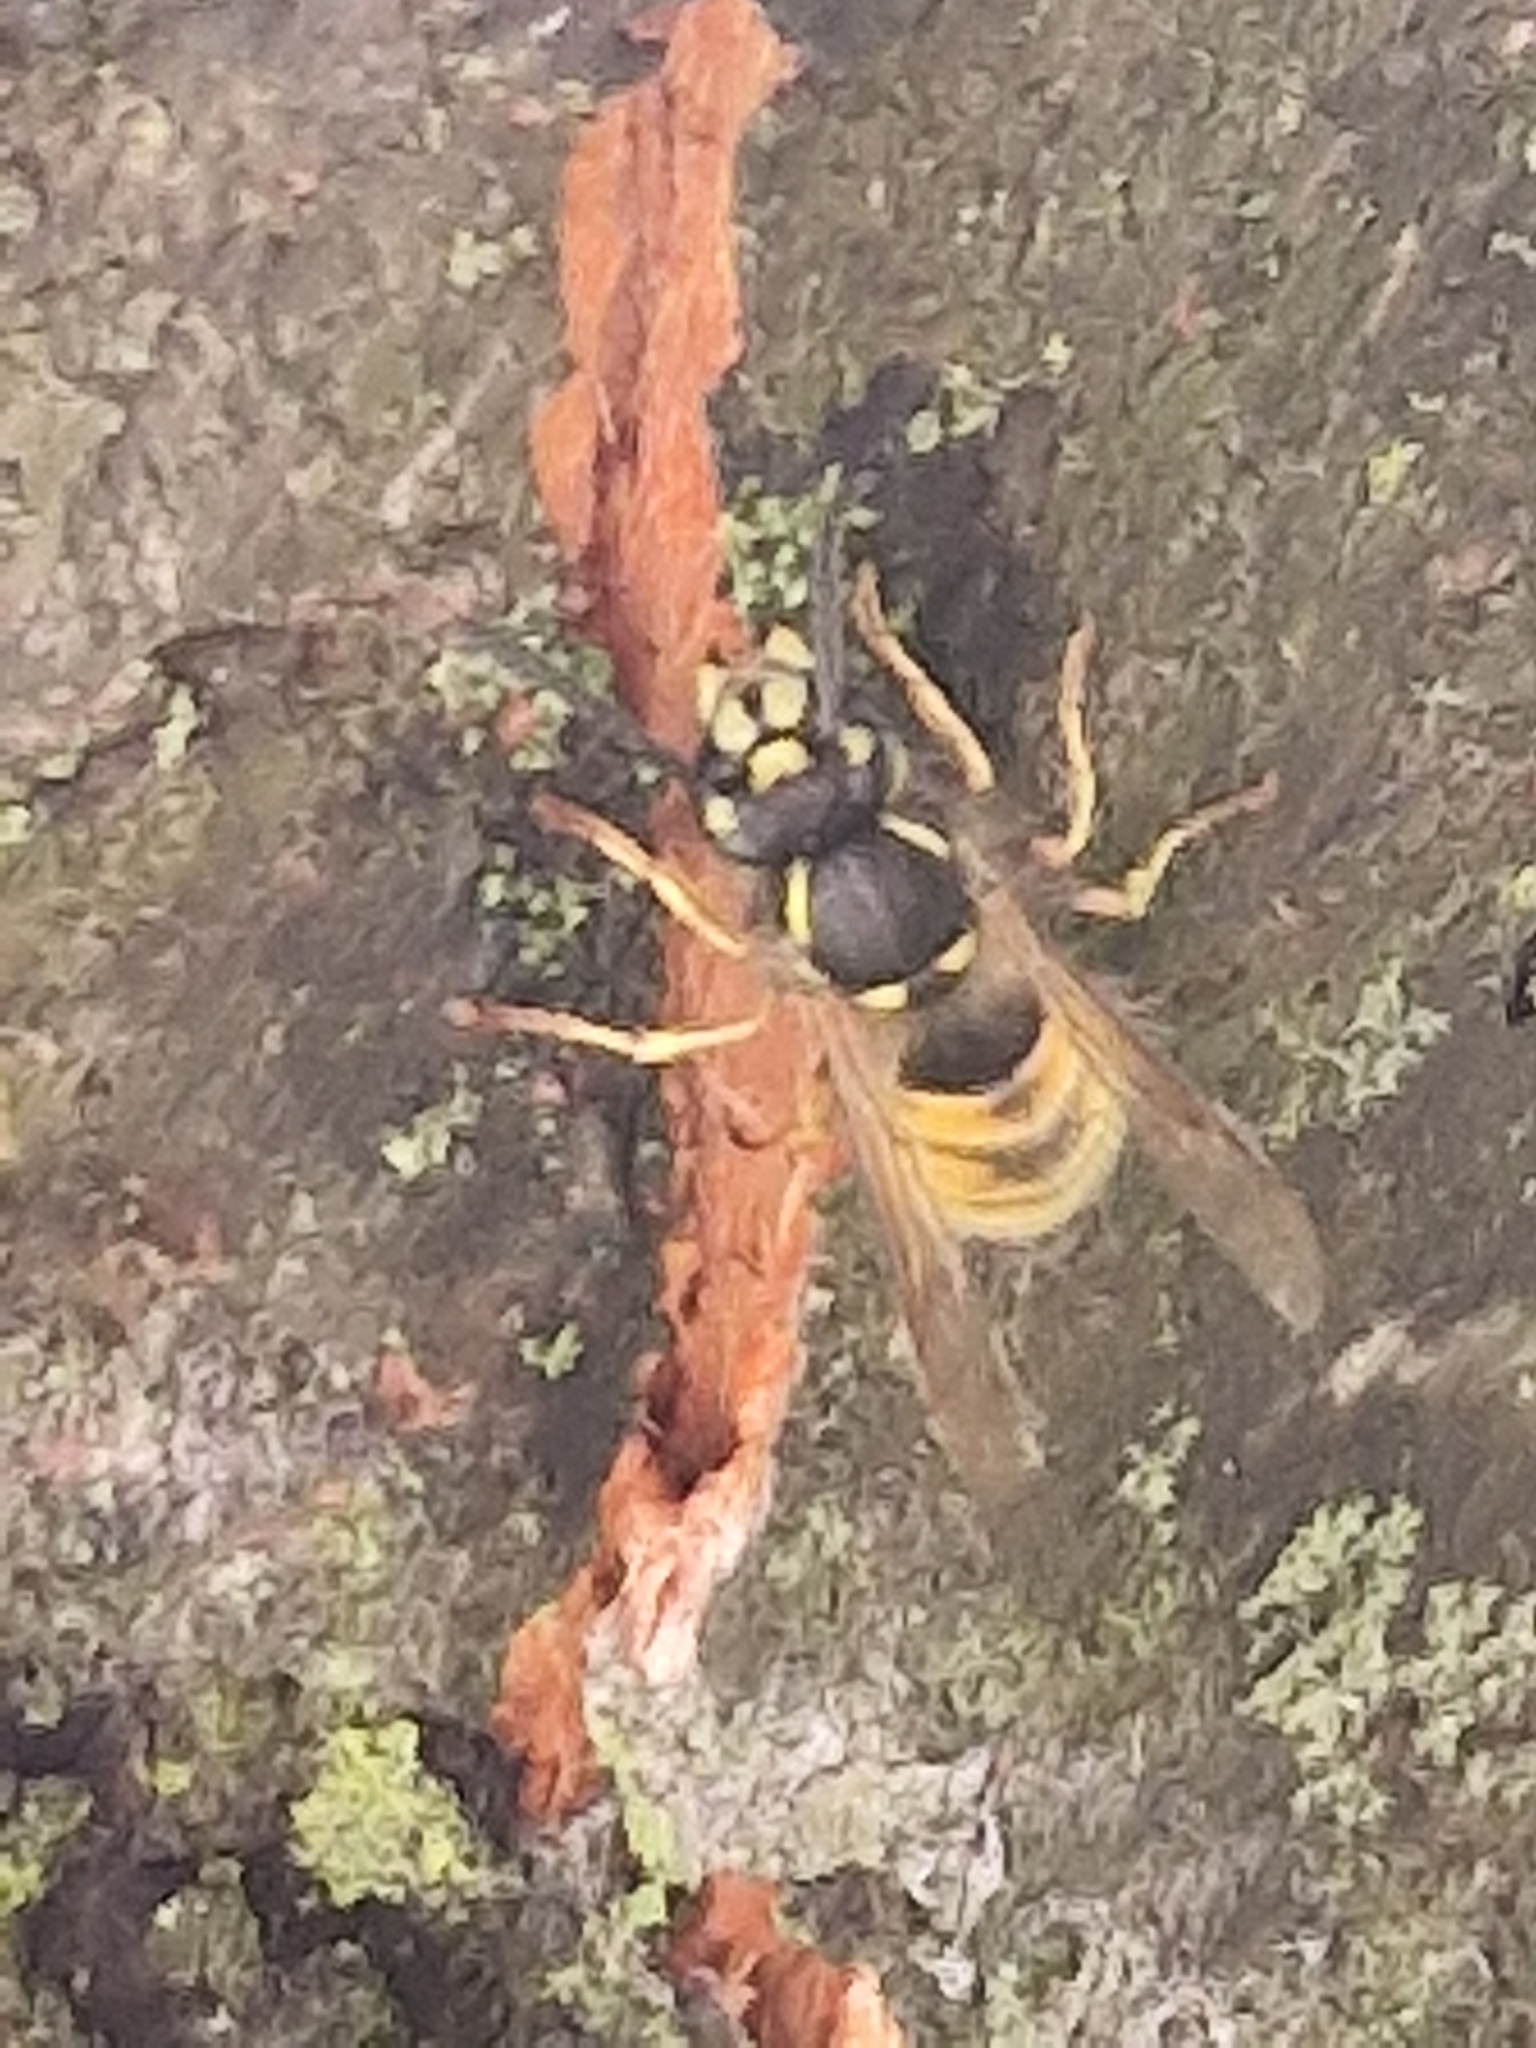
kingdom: Animalia
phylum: Arthropoda
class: Insecta
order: Hymenoptera
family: Vespidae
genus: Vespula
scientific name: Vespula vulgaris
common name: Common wasp
